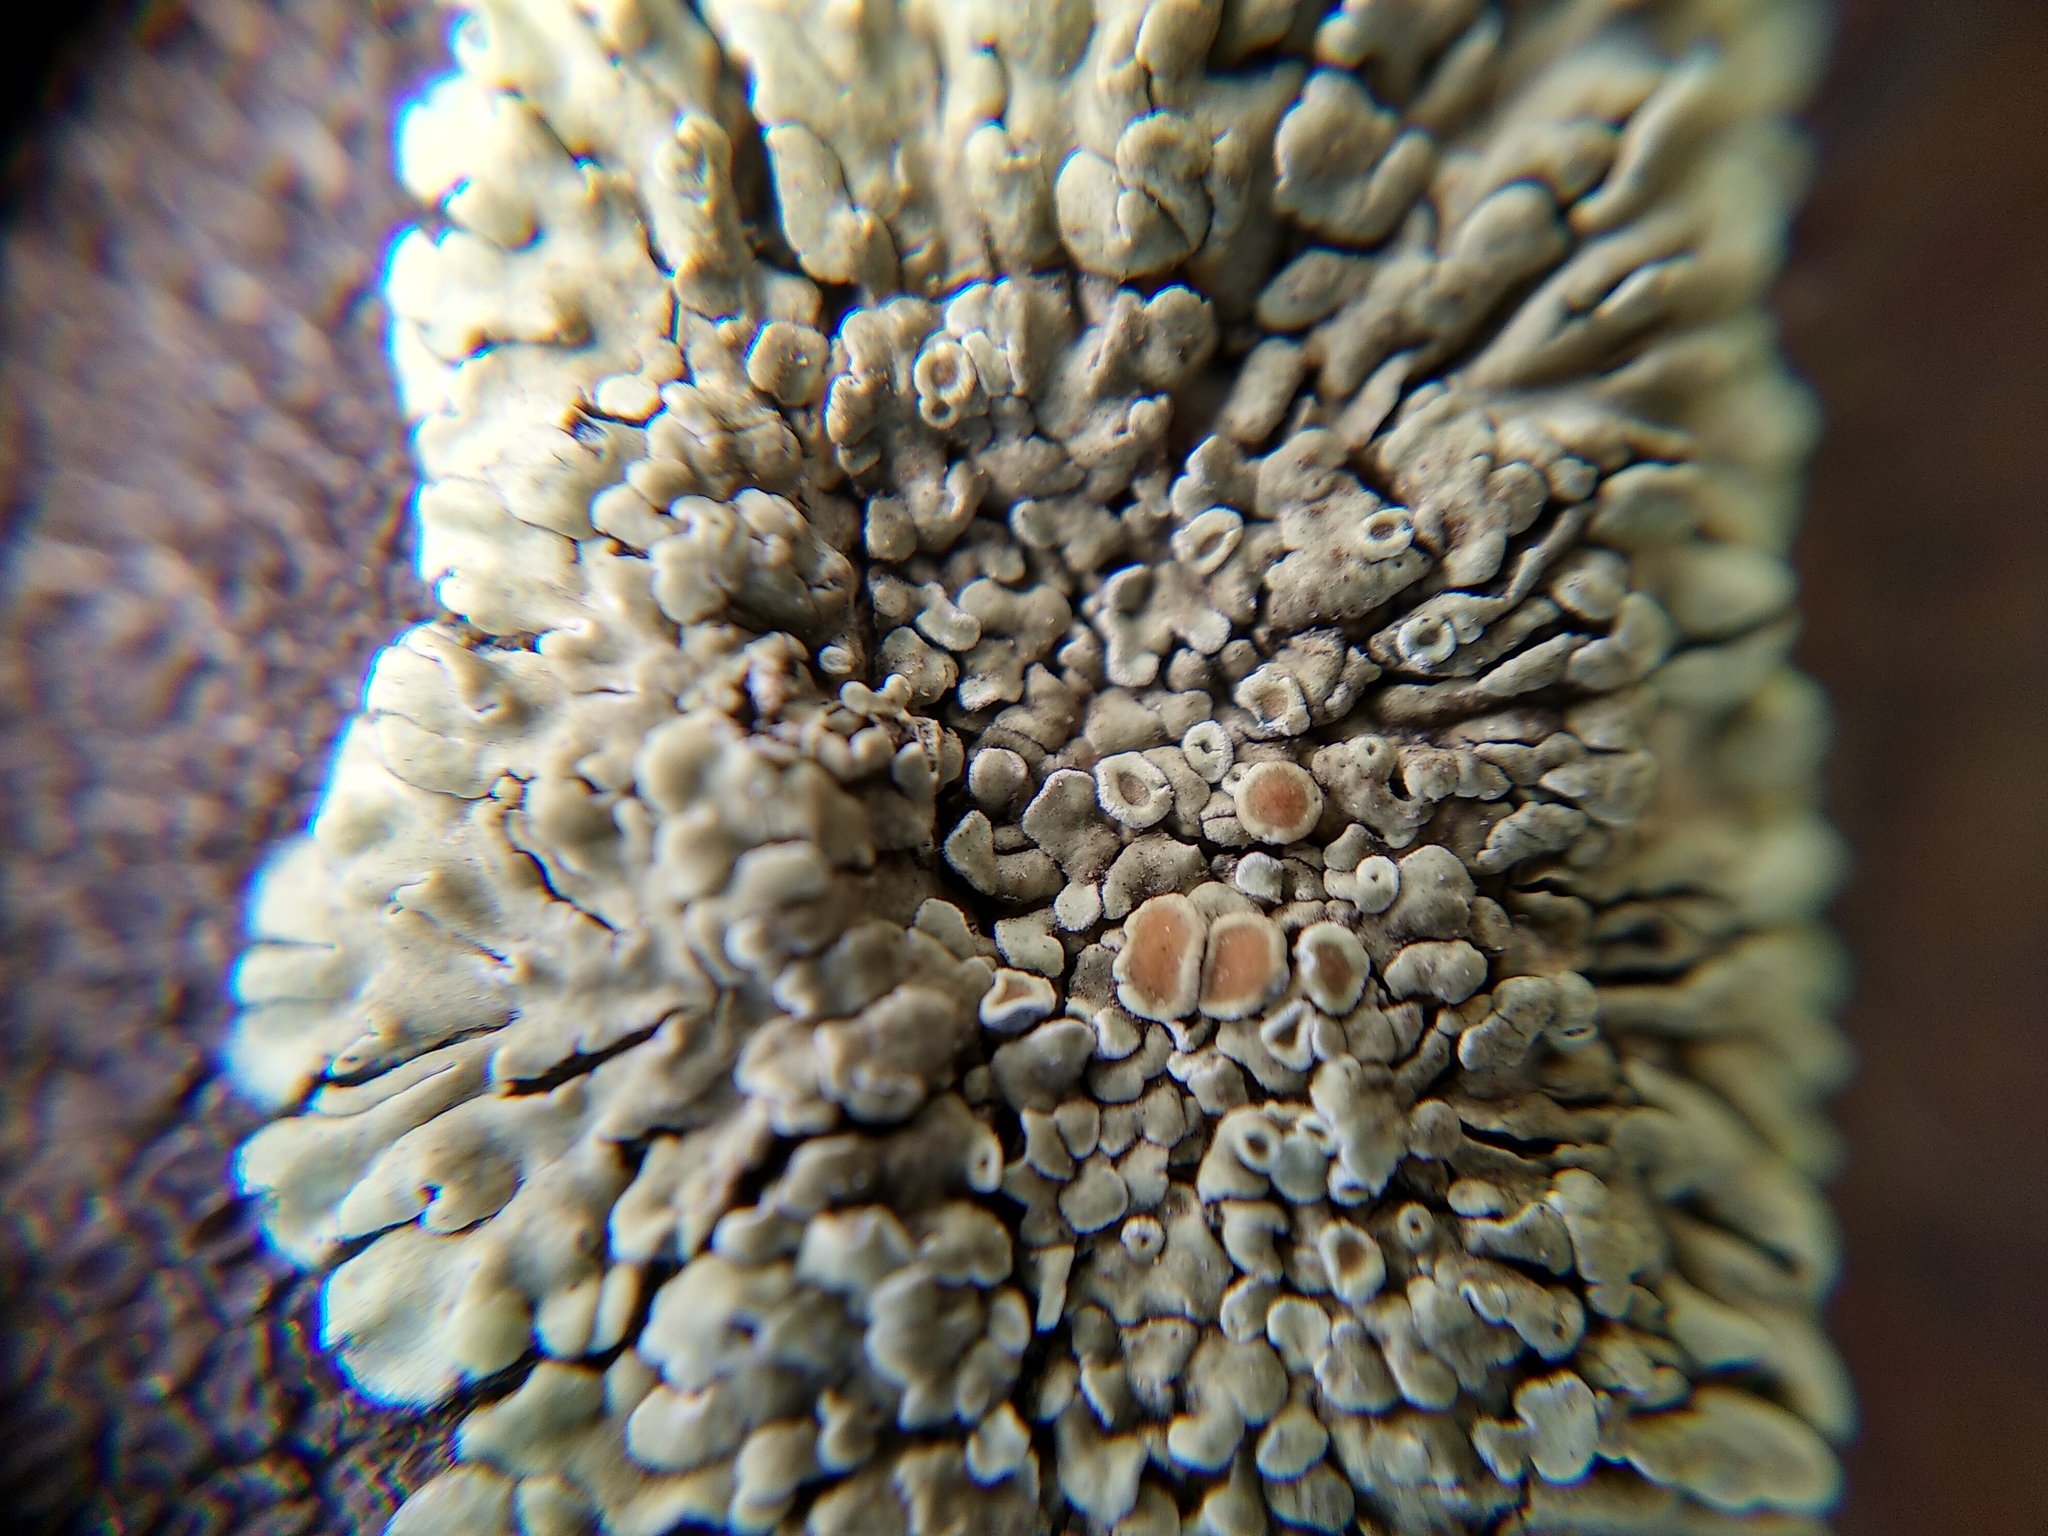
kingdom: Fungi
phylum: Ascomycota
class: Lecanoromycetes
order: Lecanorales
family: Lecanoraceae
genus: Protoparmeliopsis
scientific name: Protoparmeliopsis muralis
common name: Stonewall rim lichen
